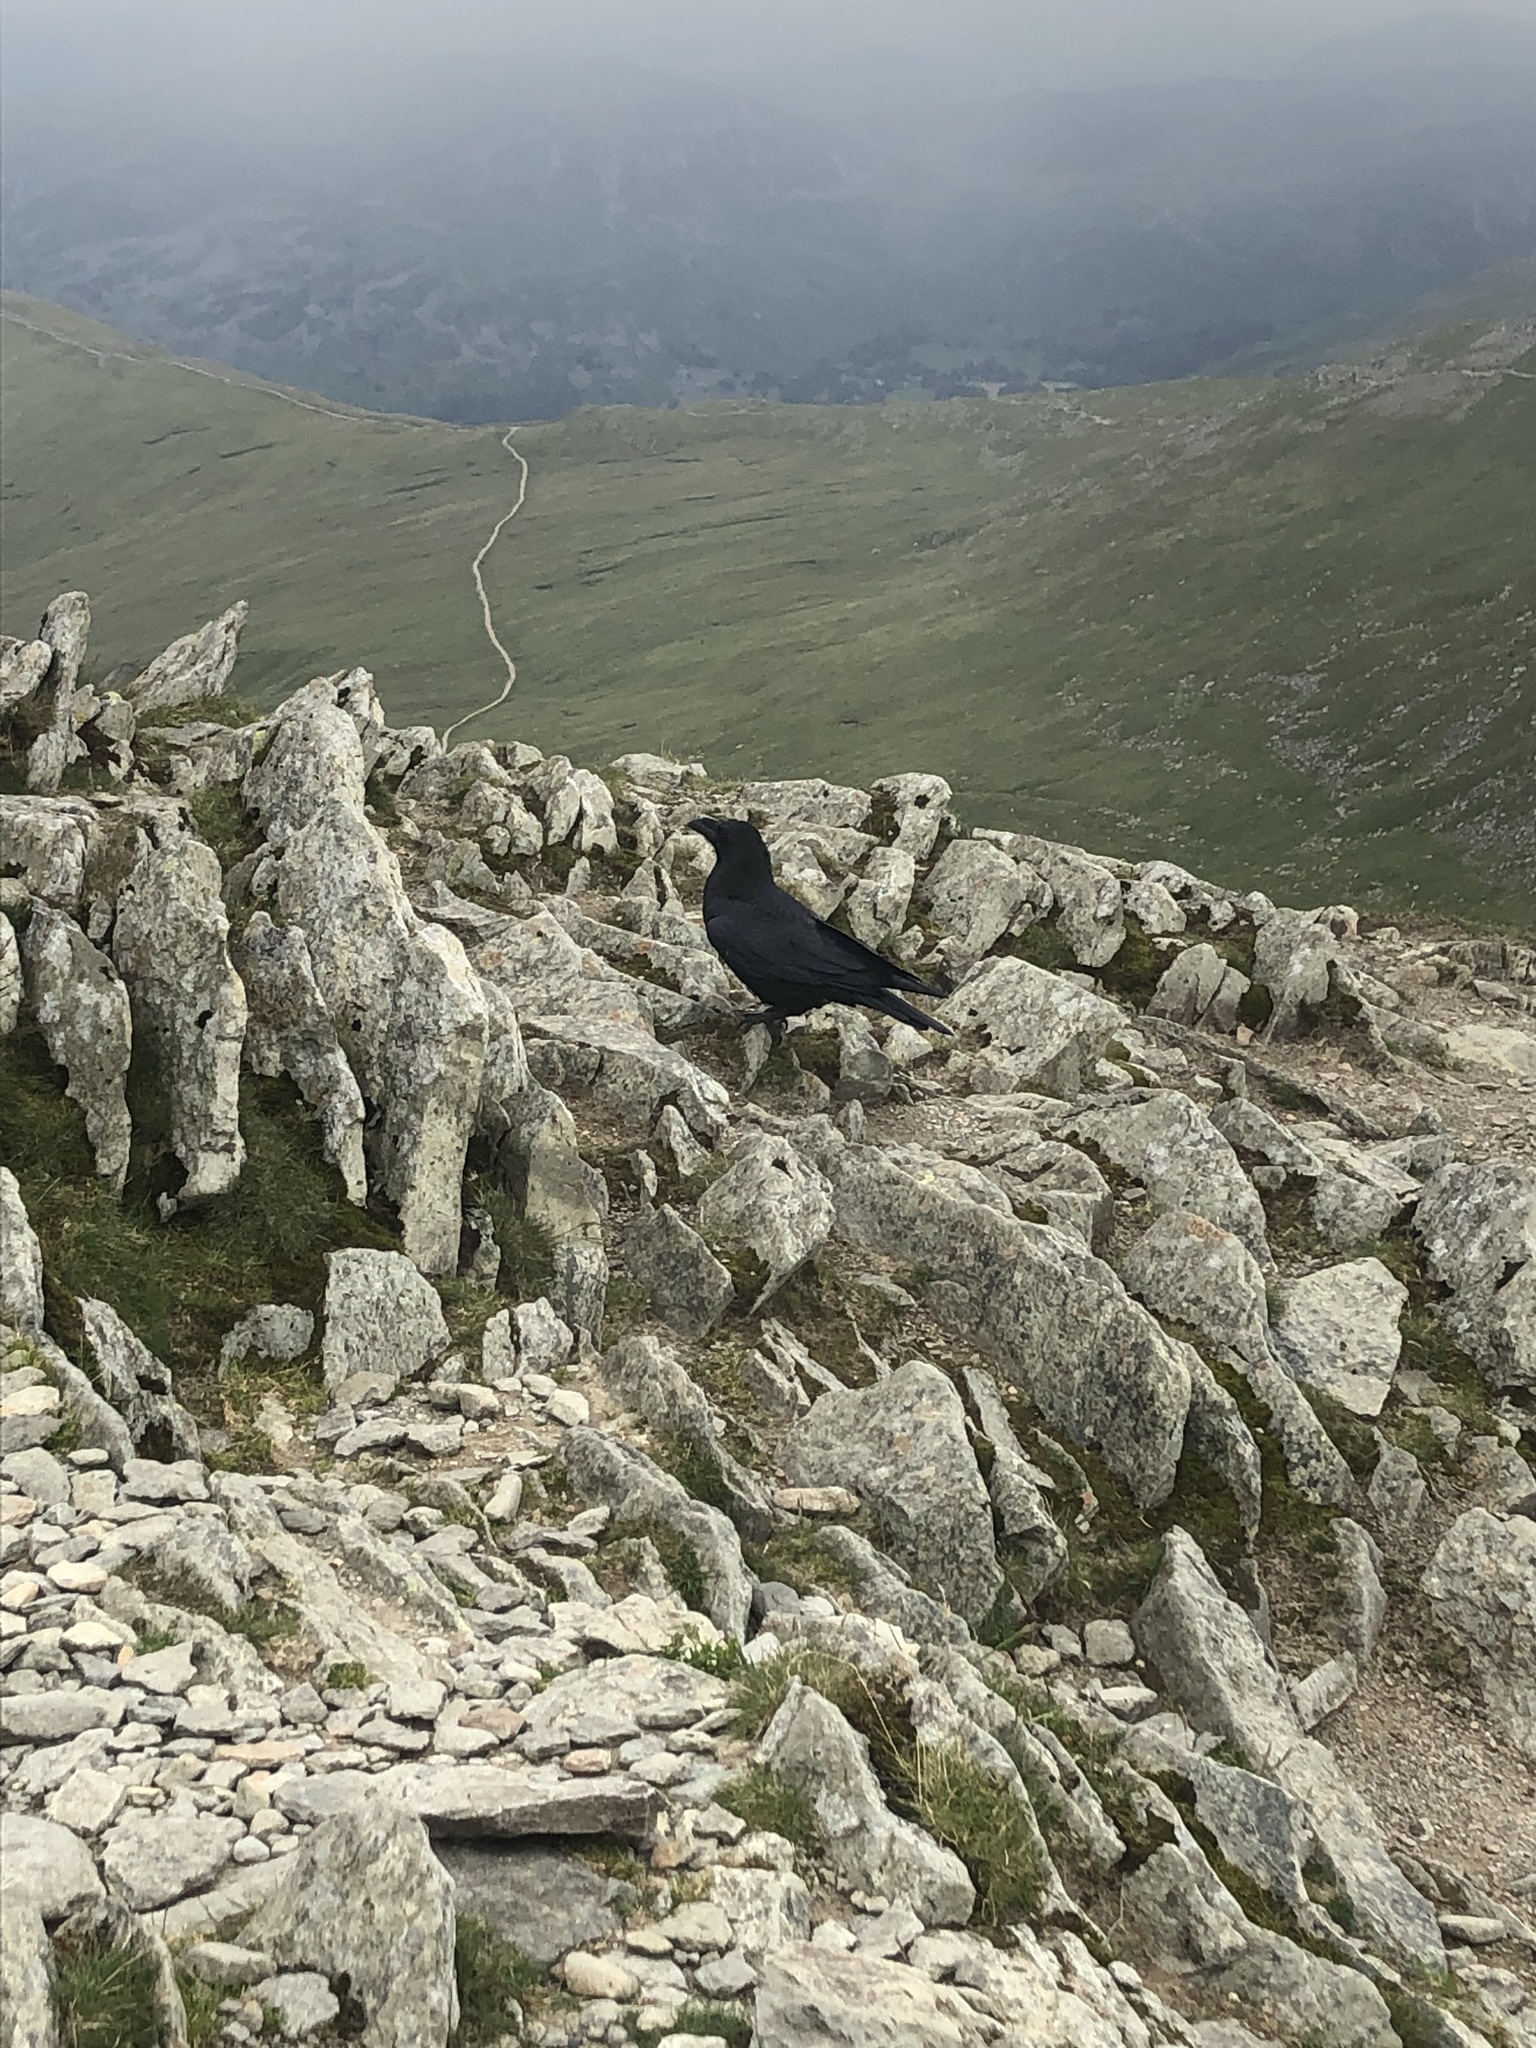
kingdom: Animalia
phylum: Chordata
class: Aves
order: Passeriformes
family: Corvidae
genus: Corvus
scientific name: Corvus corax
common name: Common raven
